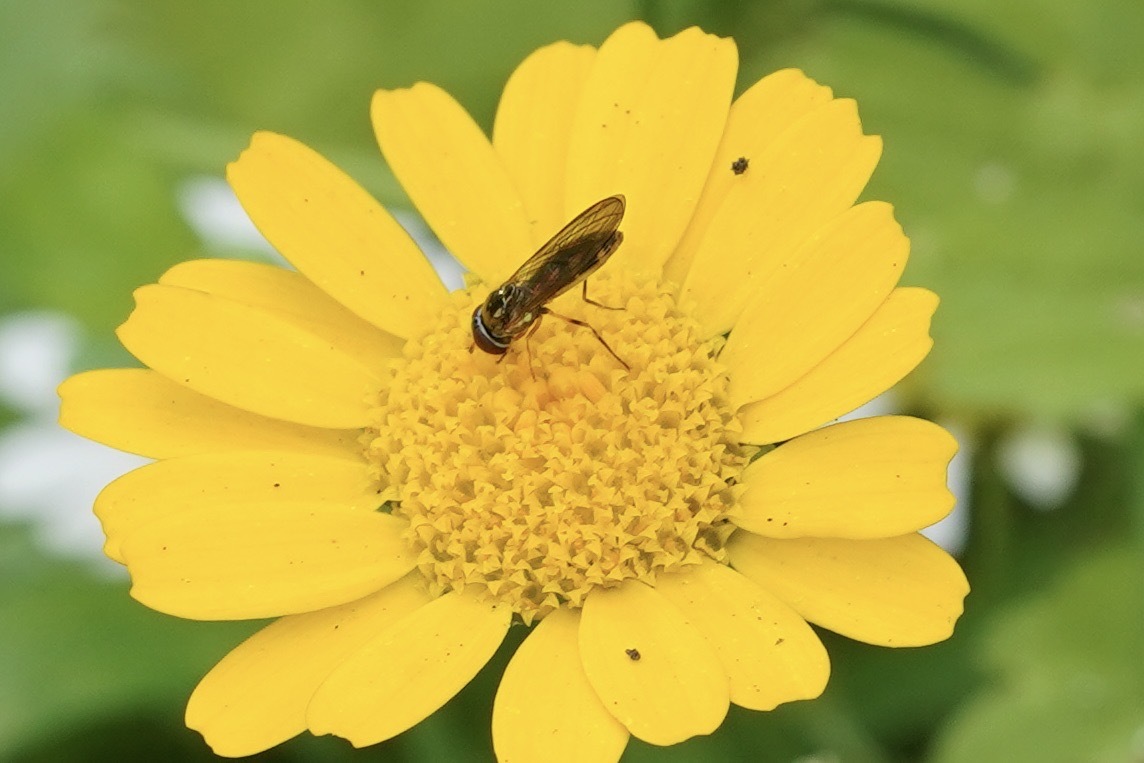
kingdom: Animalia
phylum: Arthropoda
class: Insecta
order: Diptera
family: Syrphidae
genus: Melanostoma
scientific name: Melanostoma
